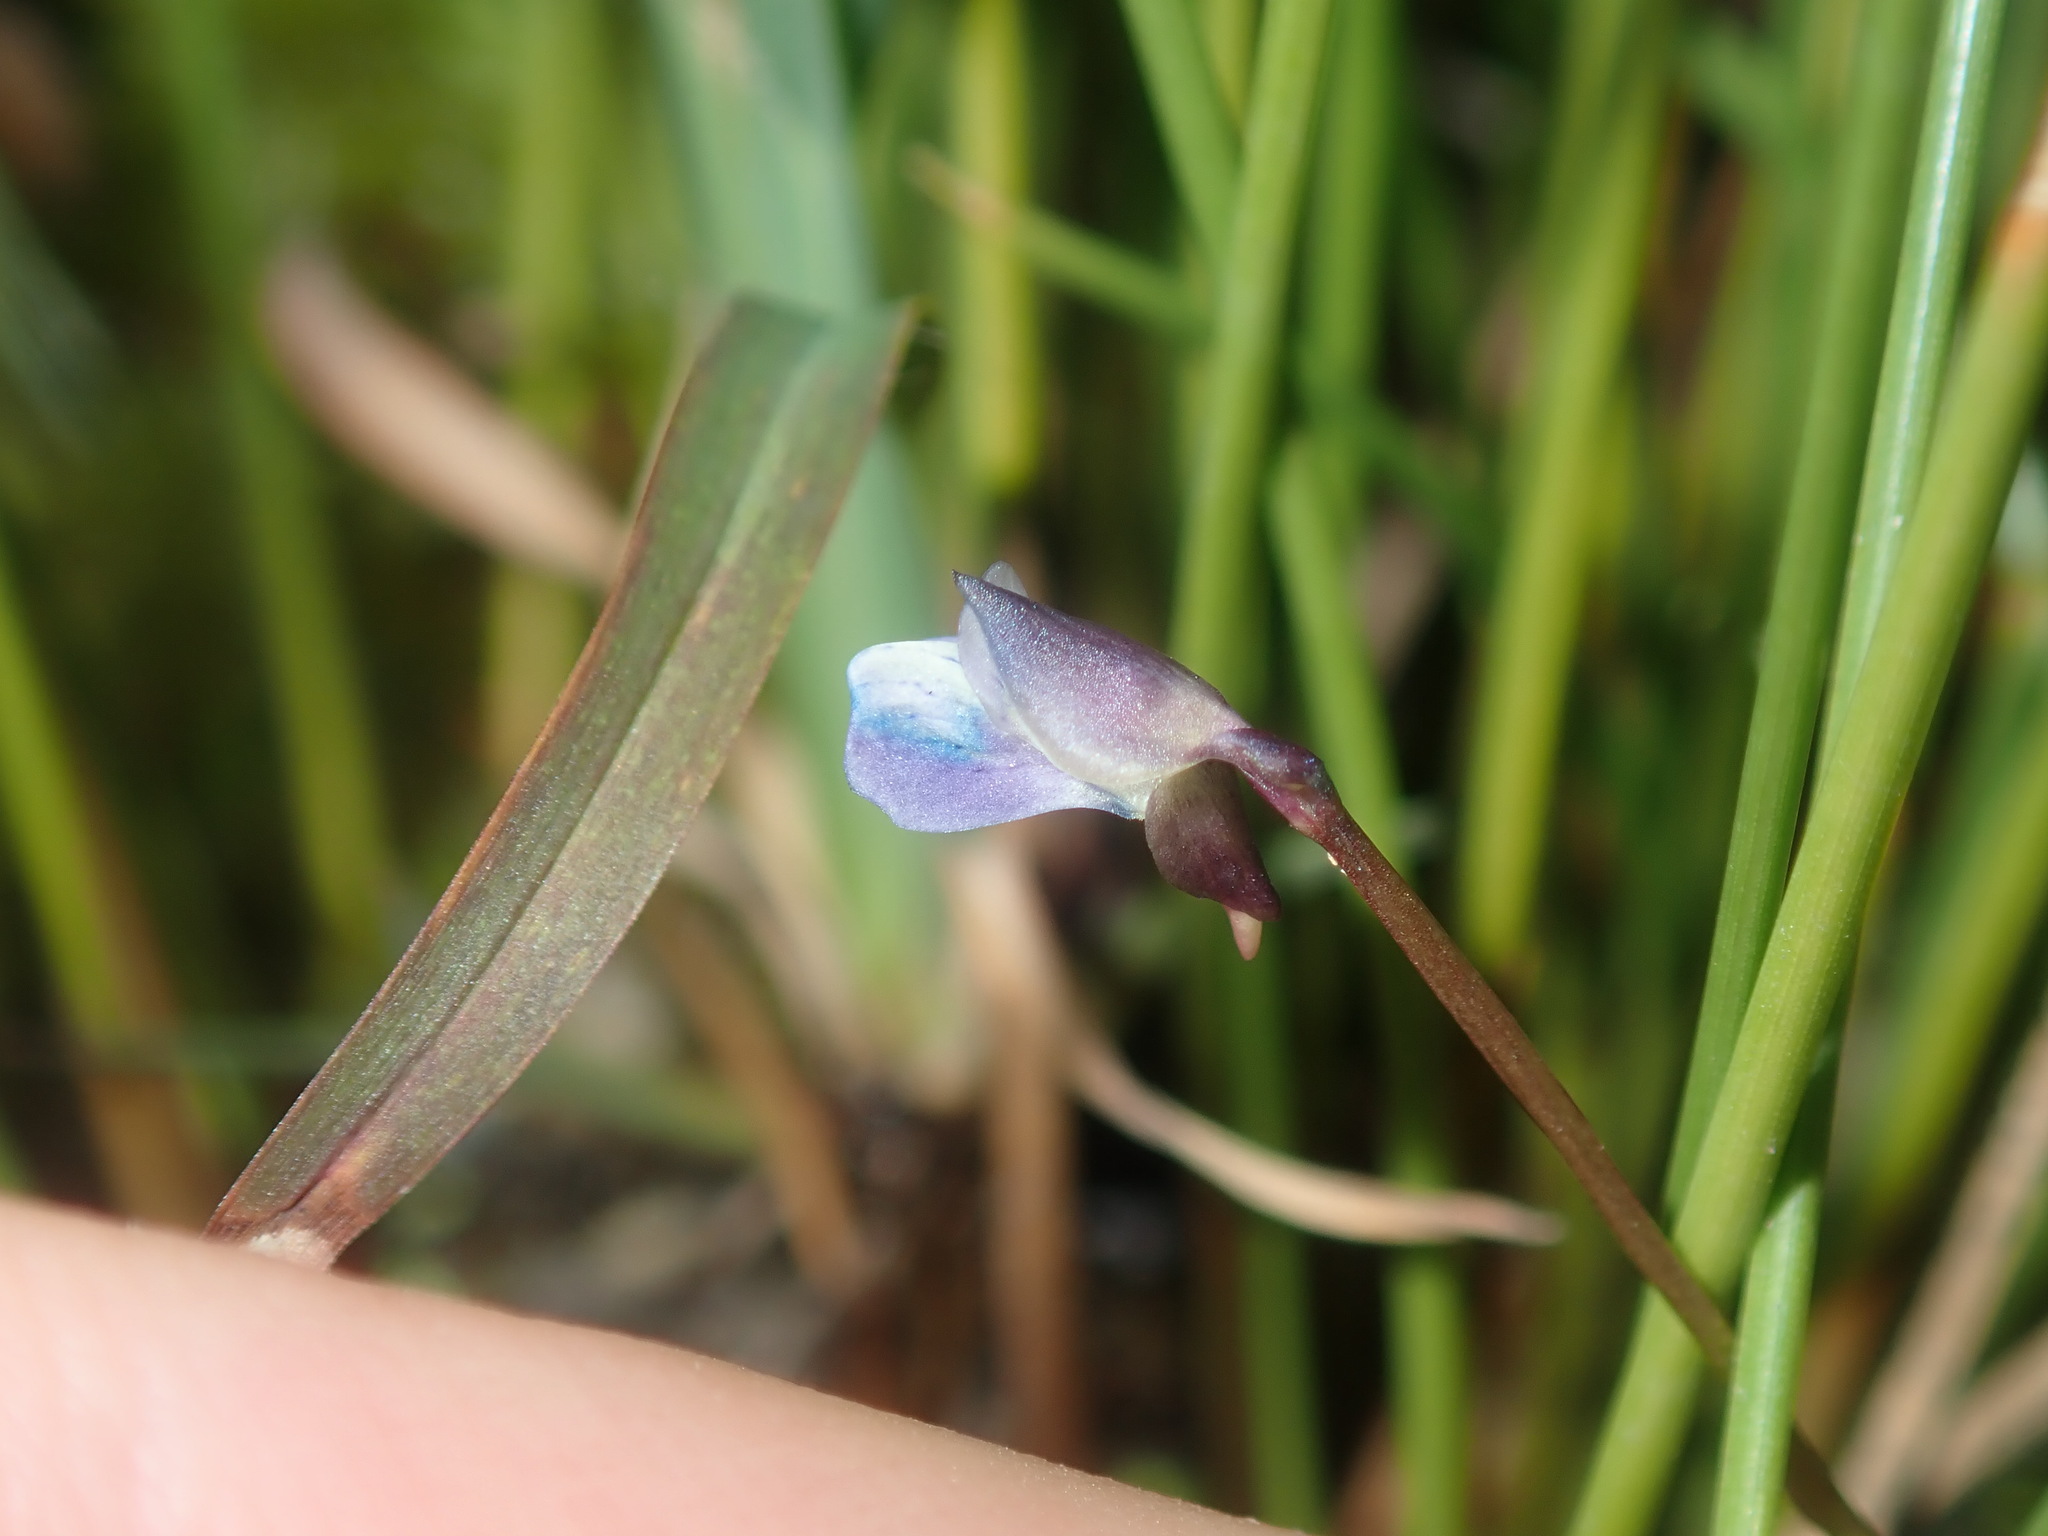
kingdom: Plantae
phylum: Tracheophyta
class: Magnoliopsida
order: Lamiales
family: Lentibulariaceae
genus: Utricularia
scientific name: Utricularia uliginosa
